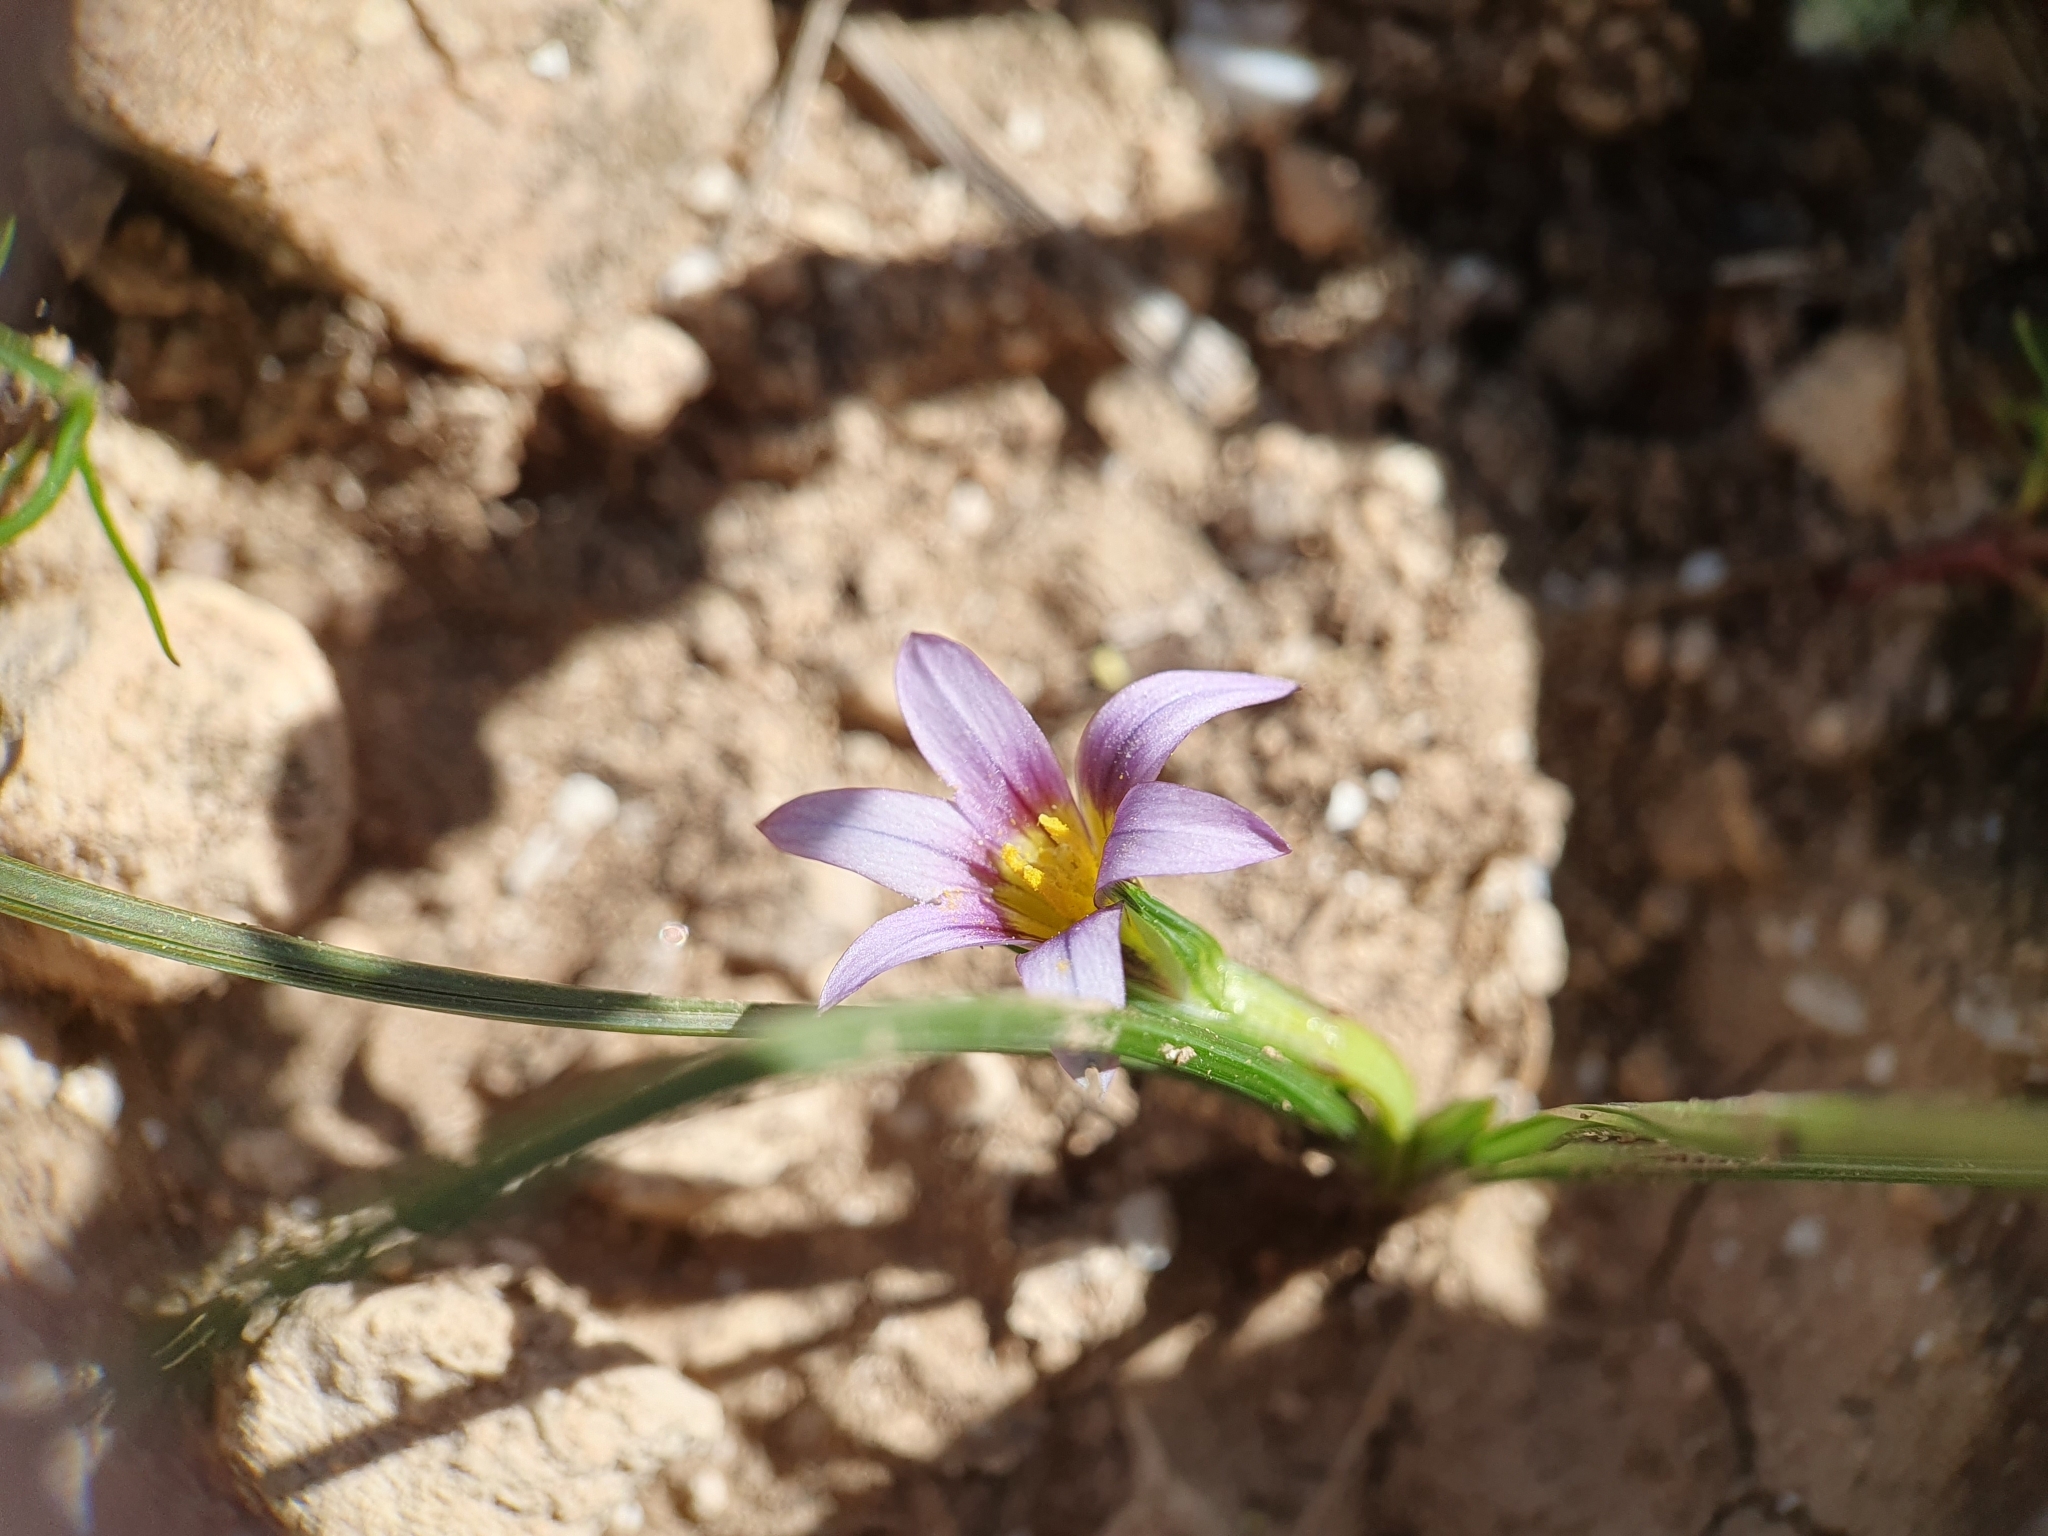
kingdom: Plantae
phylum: Tracheophyta
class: Liliopsida
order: Asparagales
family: Iridaceae
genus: Romulea
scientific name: Romulea numidica
